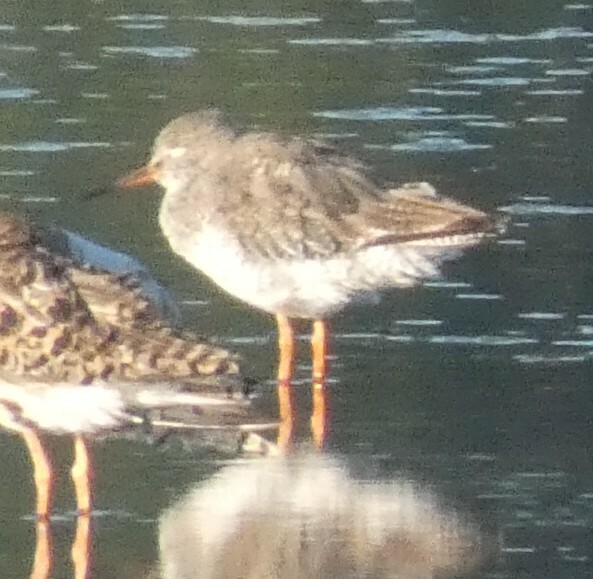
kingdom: Animalia
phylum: Chordata
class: Aves
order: Charadriiformes
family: Scolopacidae
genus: Tringa
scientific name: Tringa totanus
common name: Common redshank
